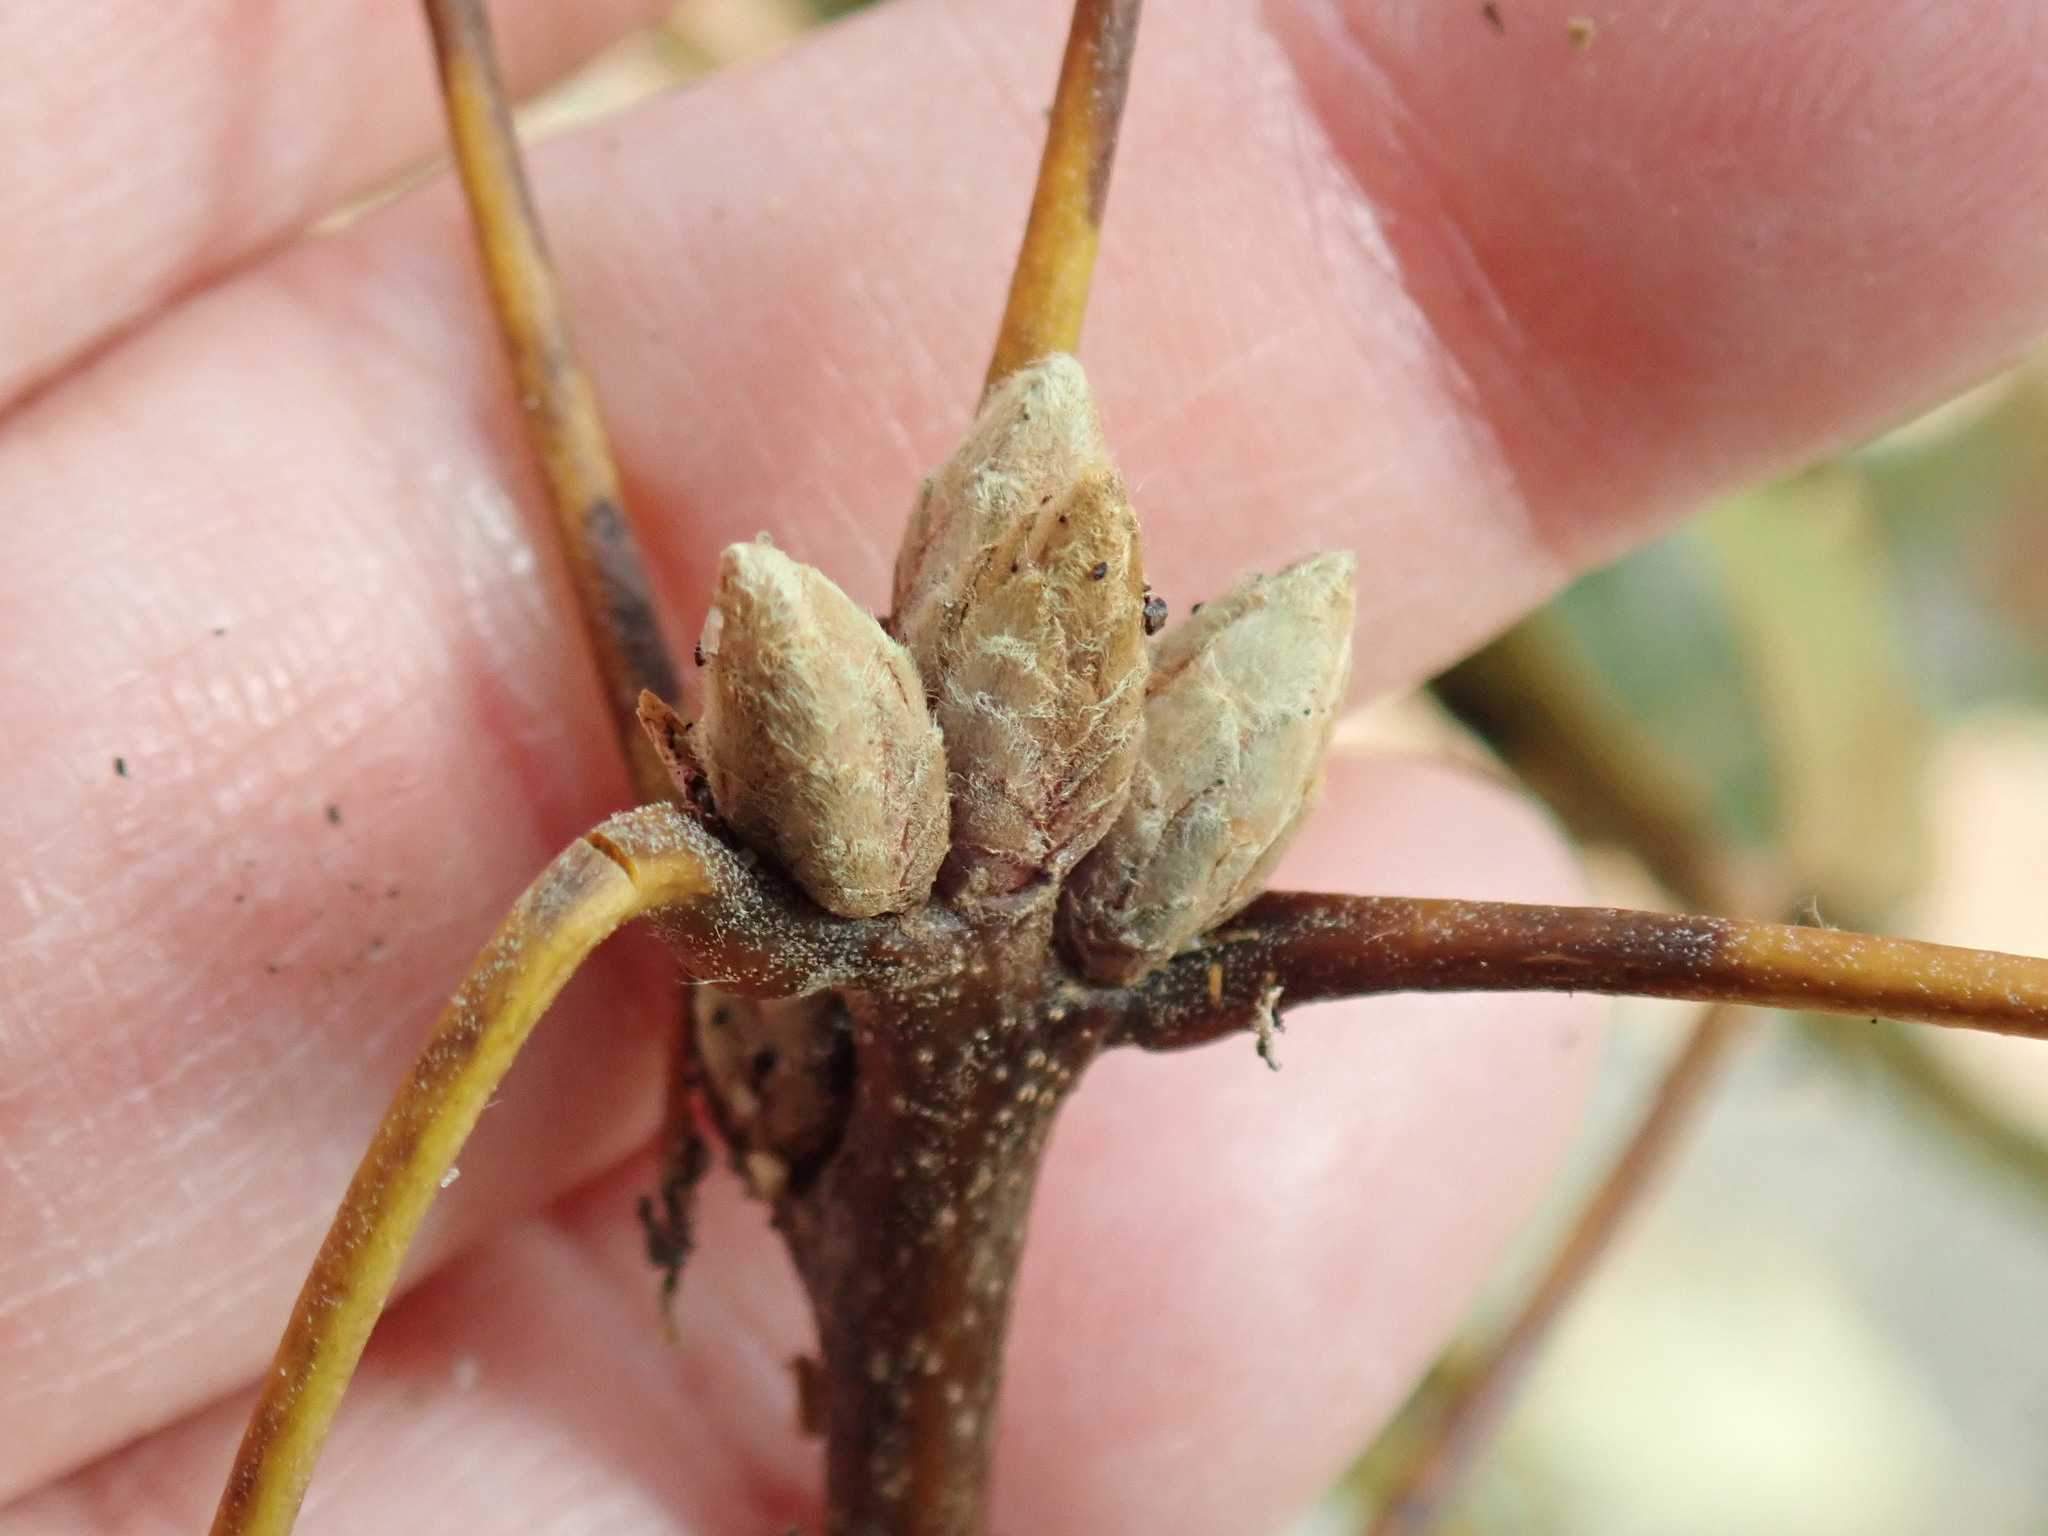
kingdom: Plantae
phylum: Tracheophyta
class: Magnoliopsida
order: Fagales
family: Fagaceae
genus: Quercus
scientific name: Quercus velutina
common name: Black oak
